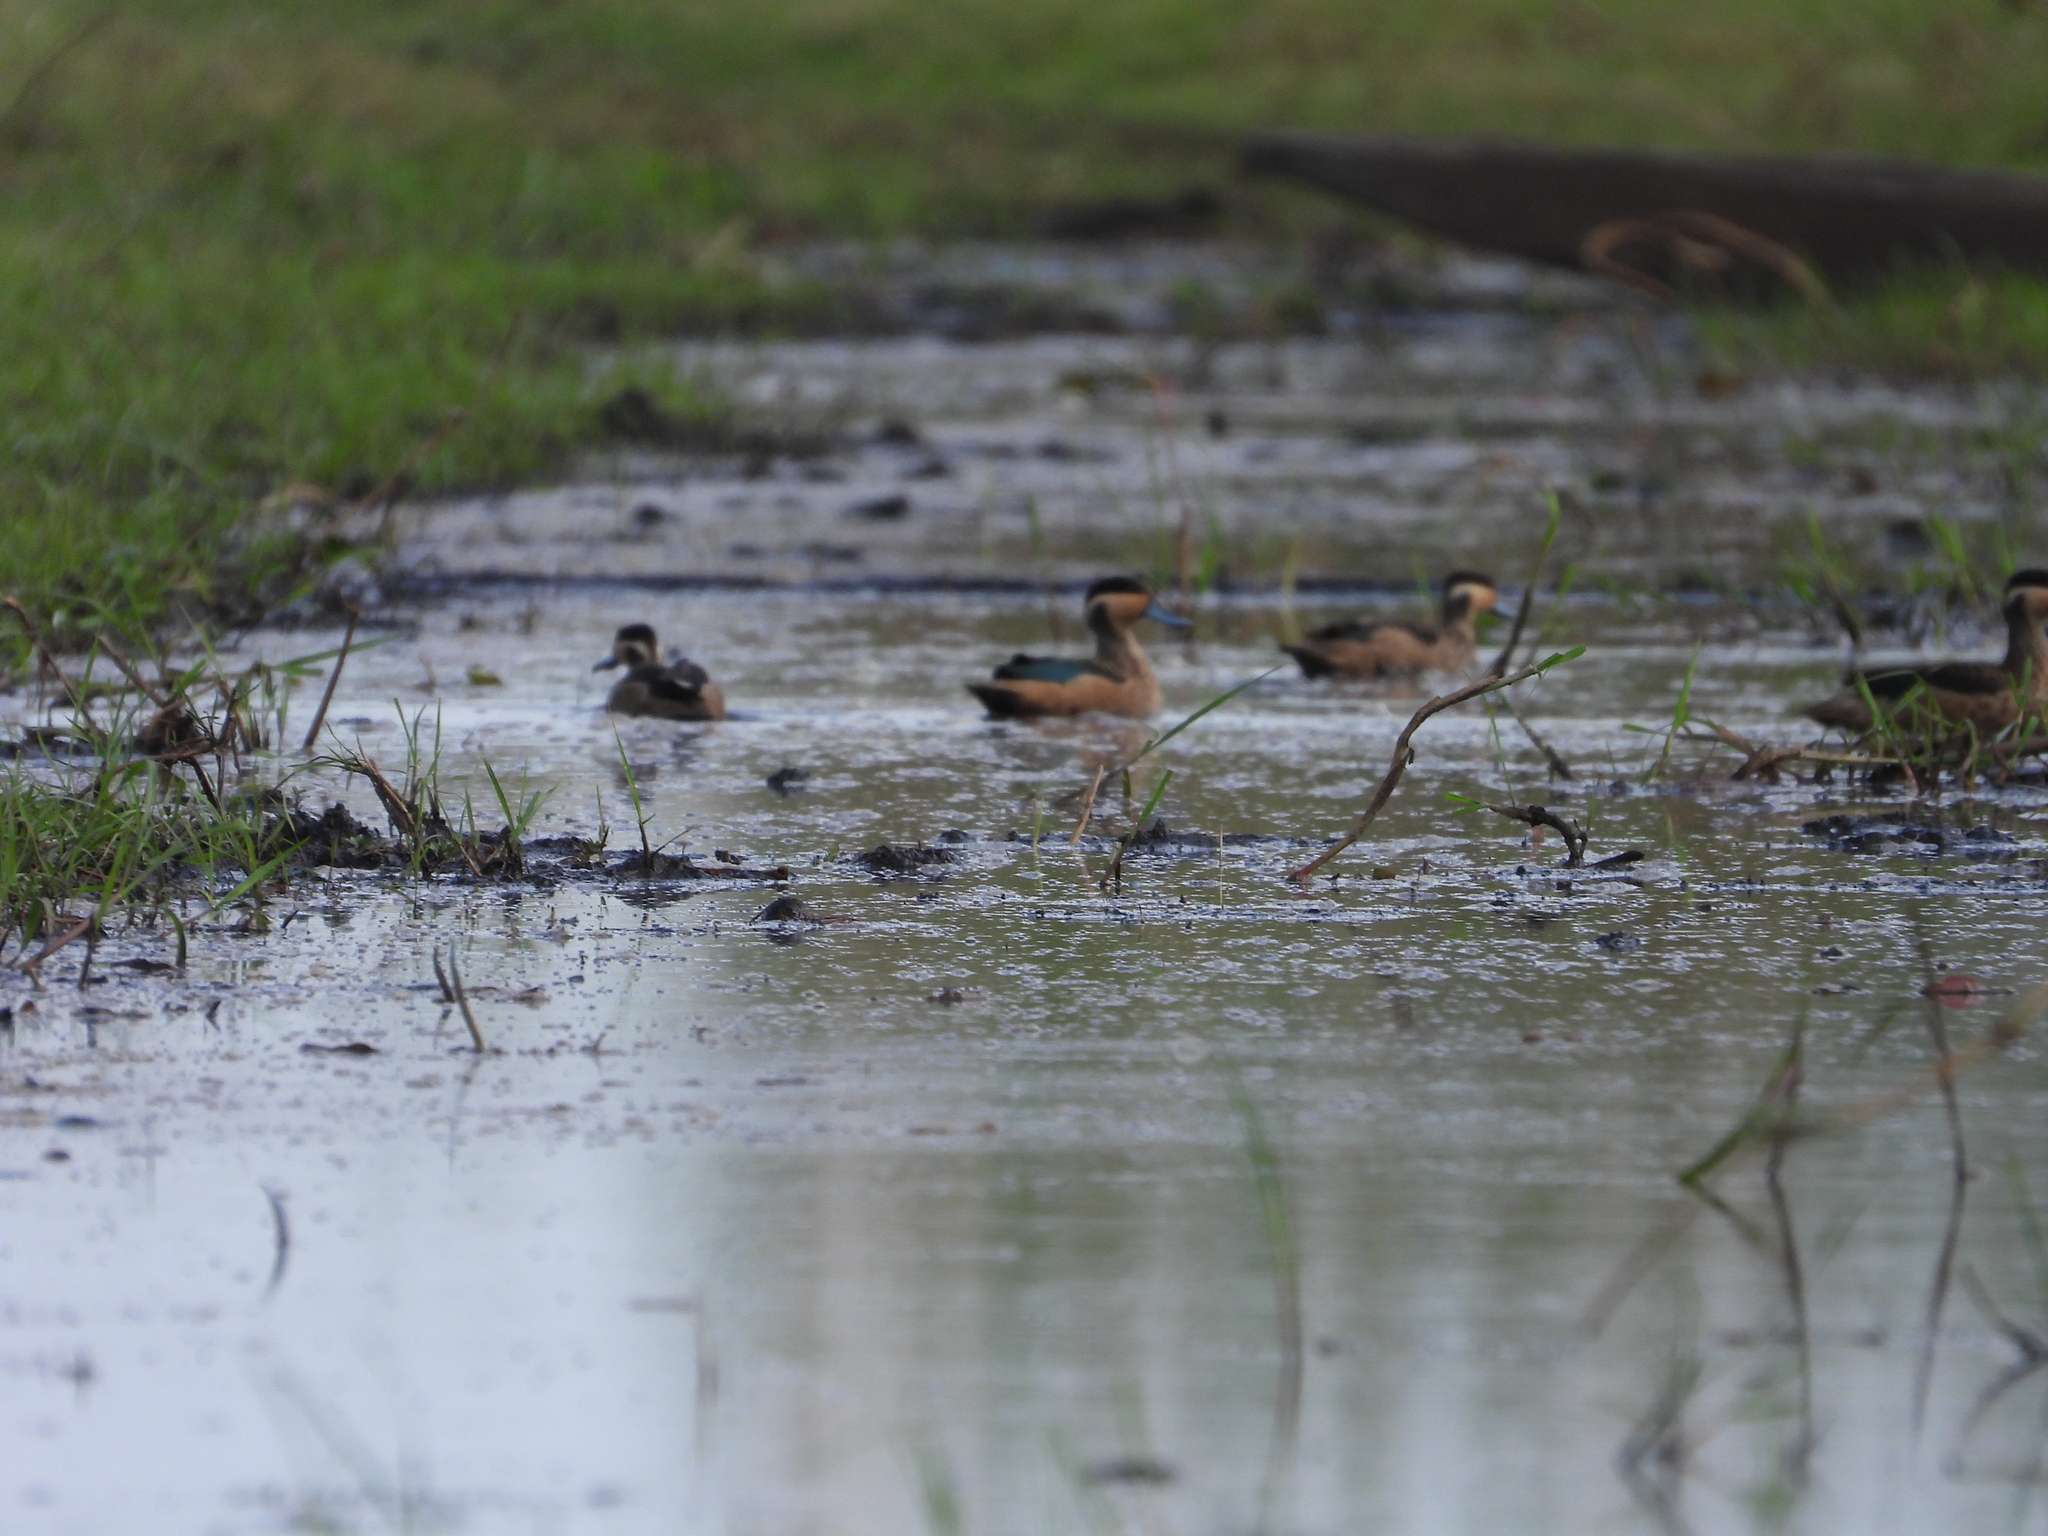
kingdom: Animalia
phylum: Chordata
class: Aves
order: Anseriformes
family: Anatidae
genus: Spatula
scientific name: Spatula hottentota
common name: Blue-billed teal
